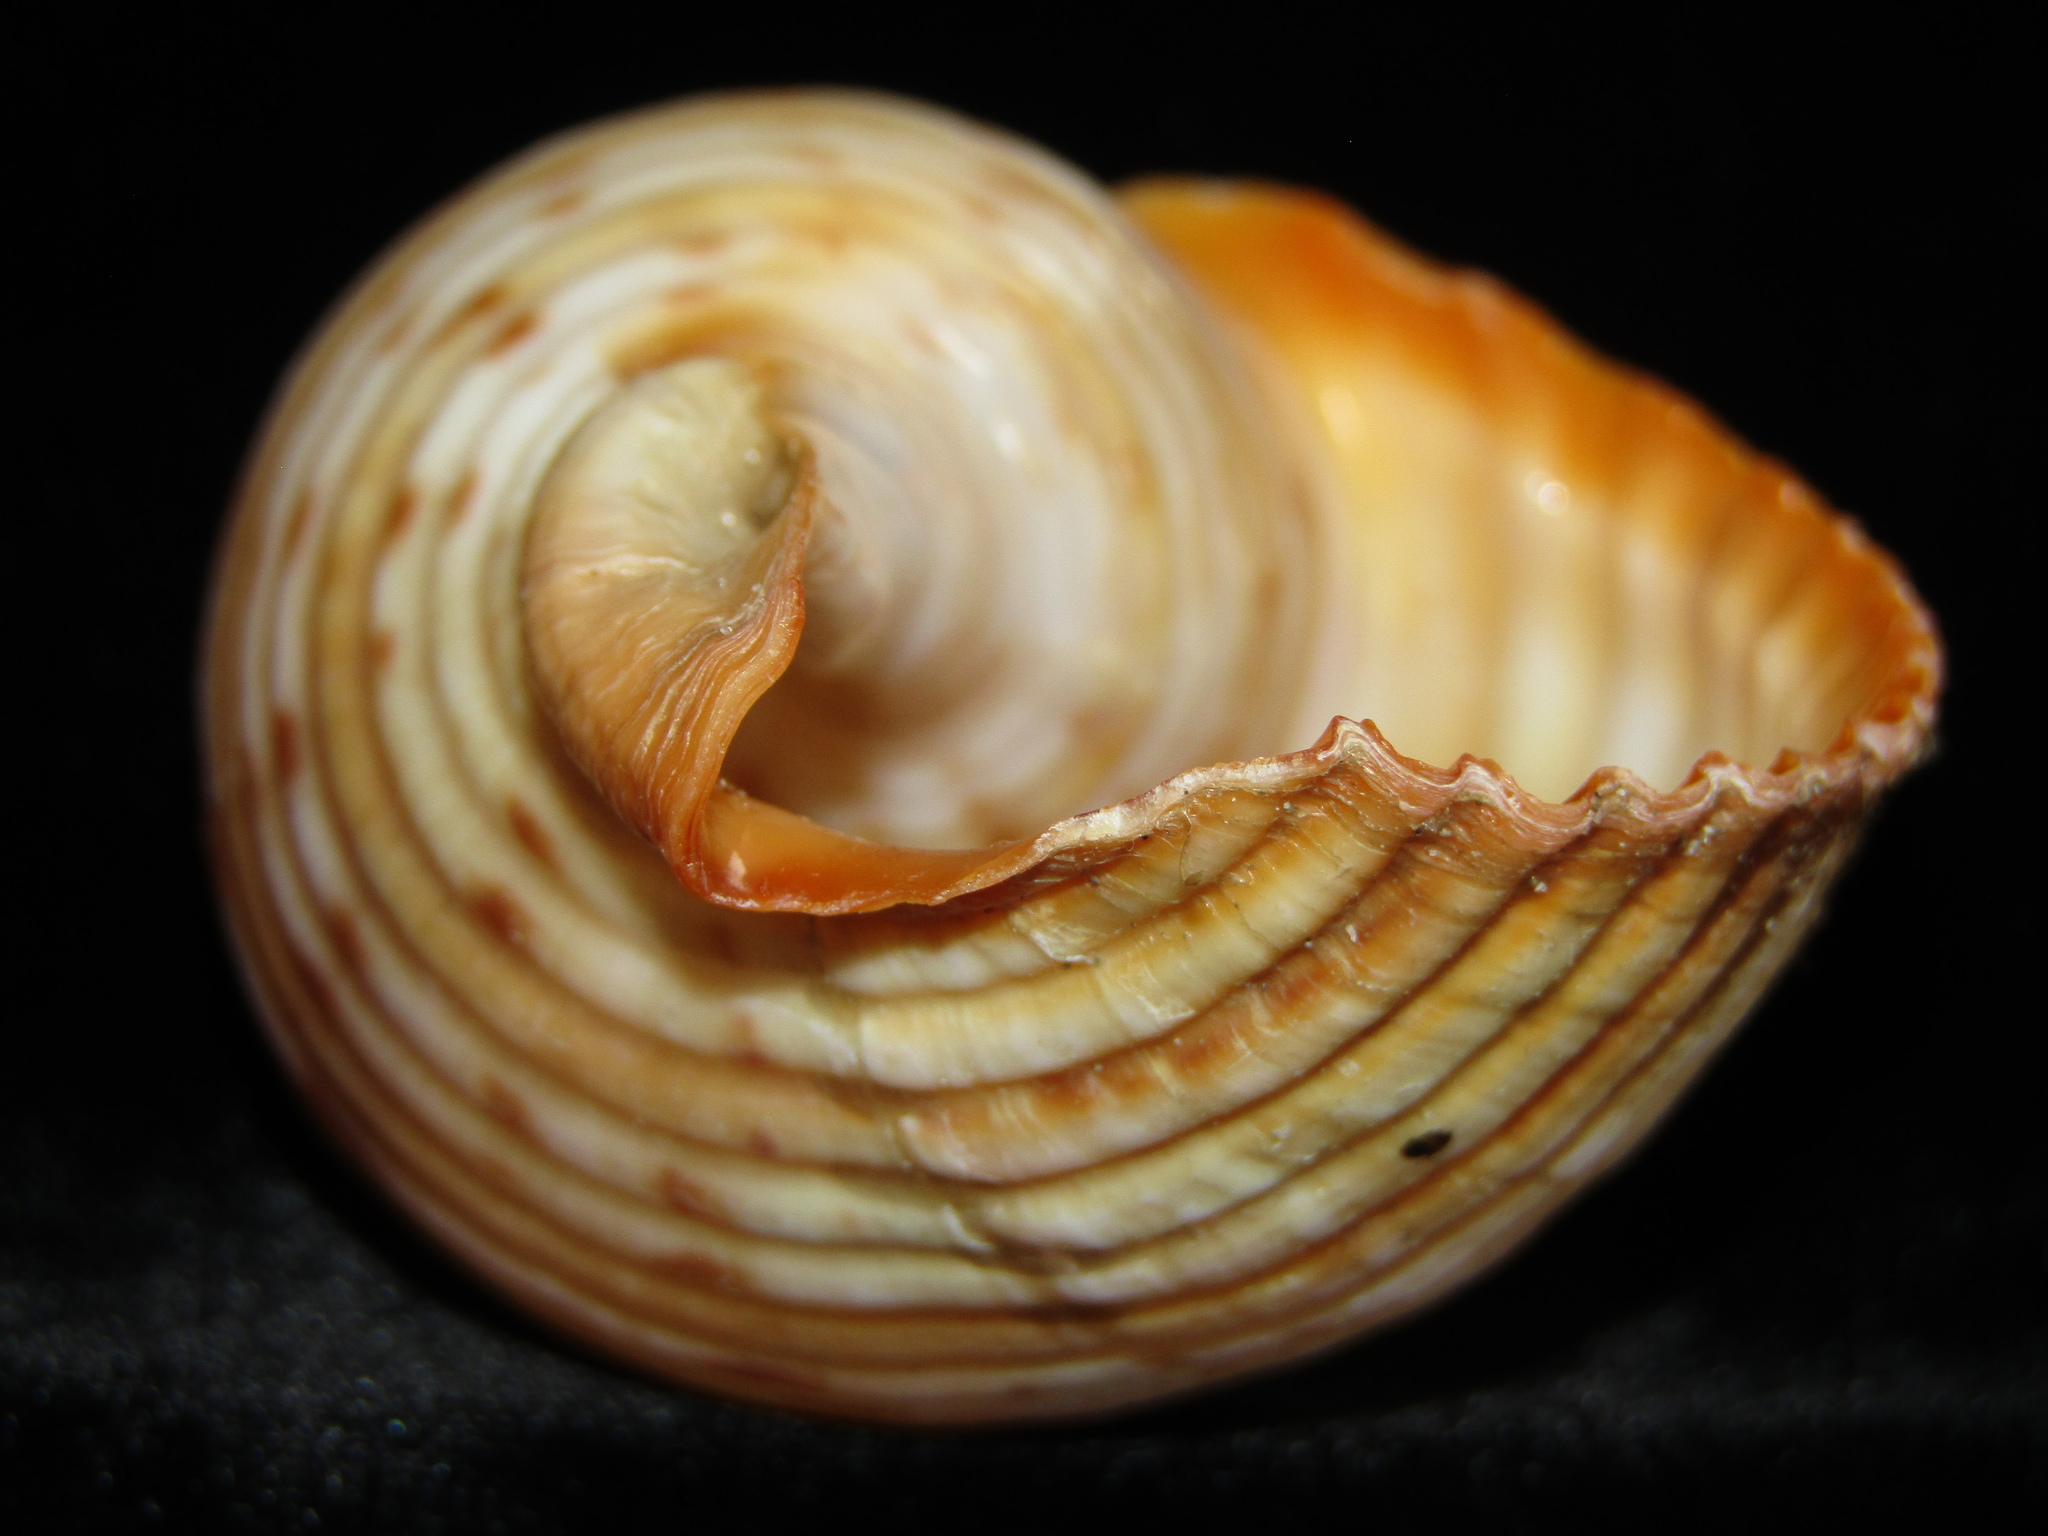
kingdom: Animalia
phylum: Mollusca
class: Gastropoda
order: Littorinimorpha
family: Tonnidae
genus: Tonna
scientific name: Tonna tankervillii
